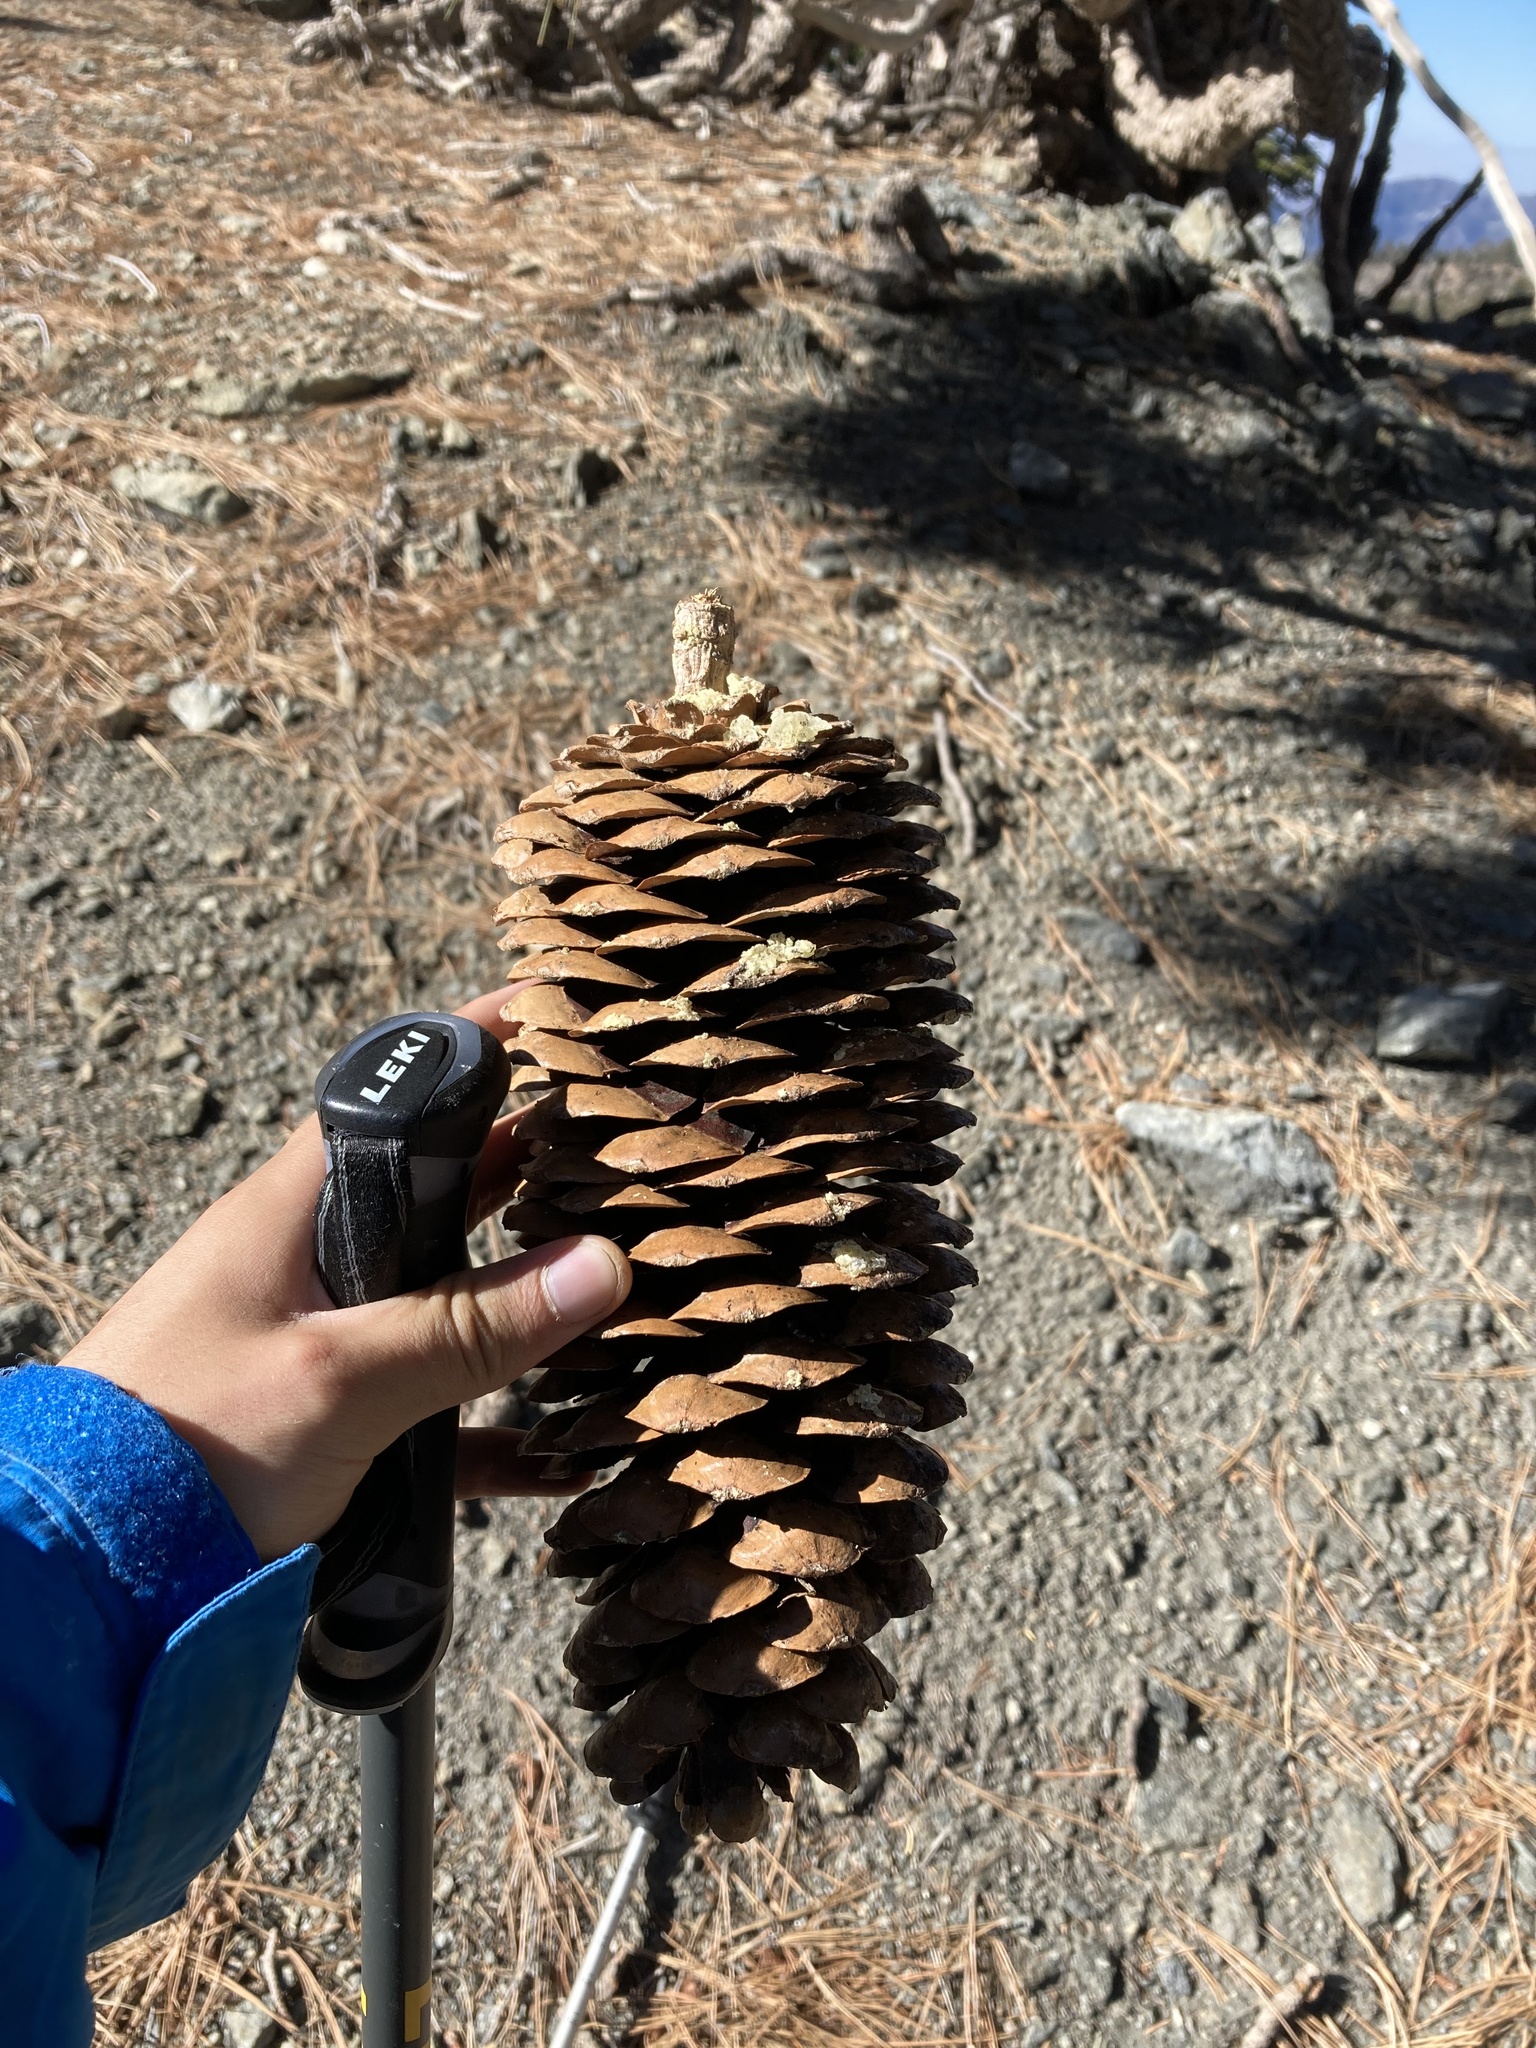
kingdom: Plantae
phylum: Tracheophyta
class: Pinopsida
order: Pinales
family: Pinaceae
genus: Pinus
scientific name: Pinus lambertiana
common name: Sugar pine
